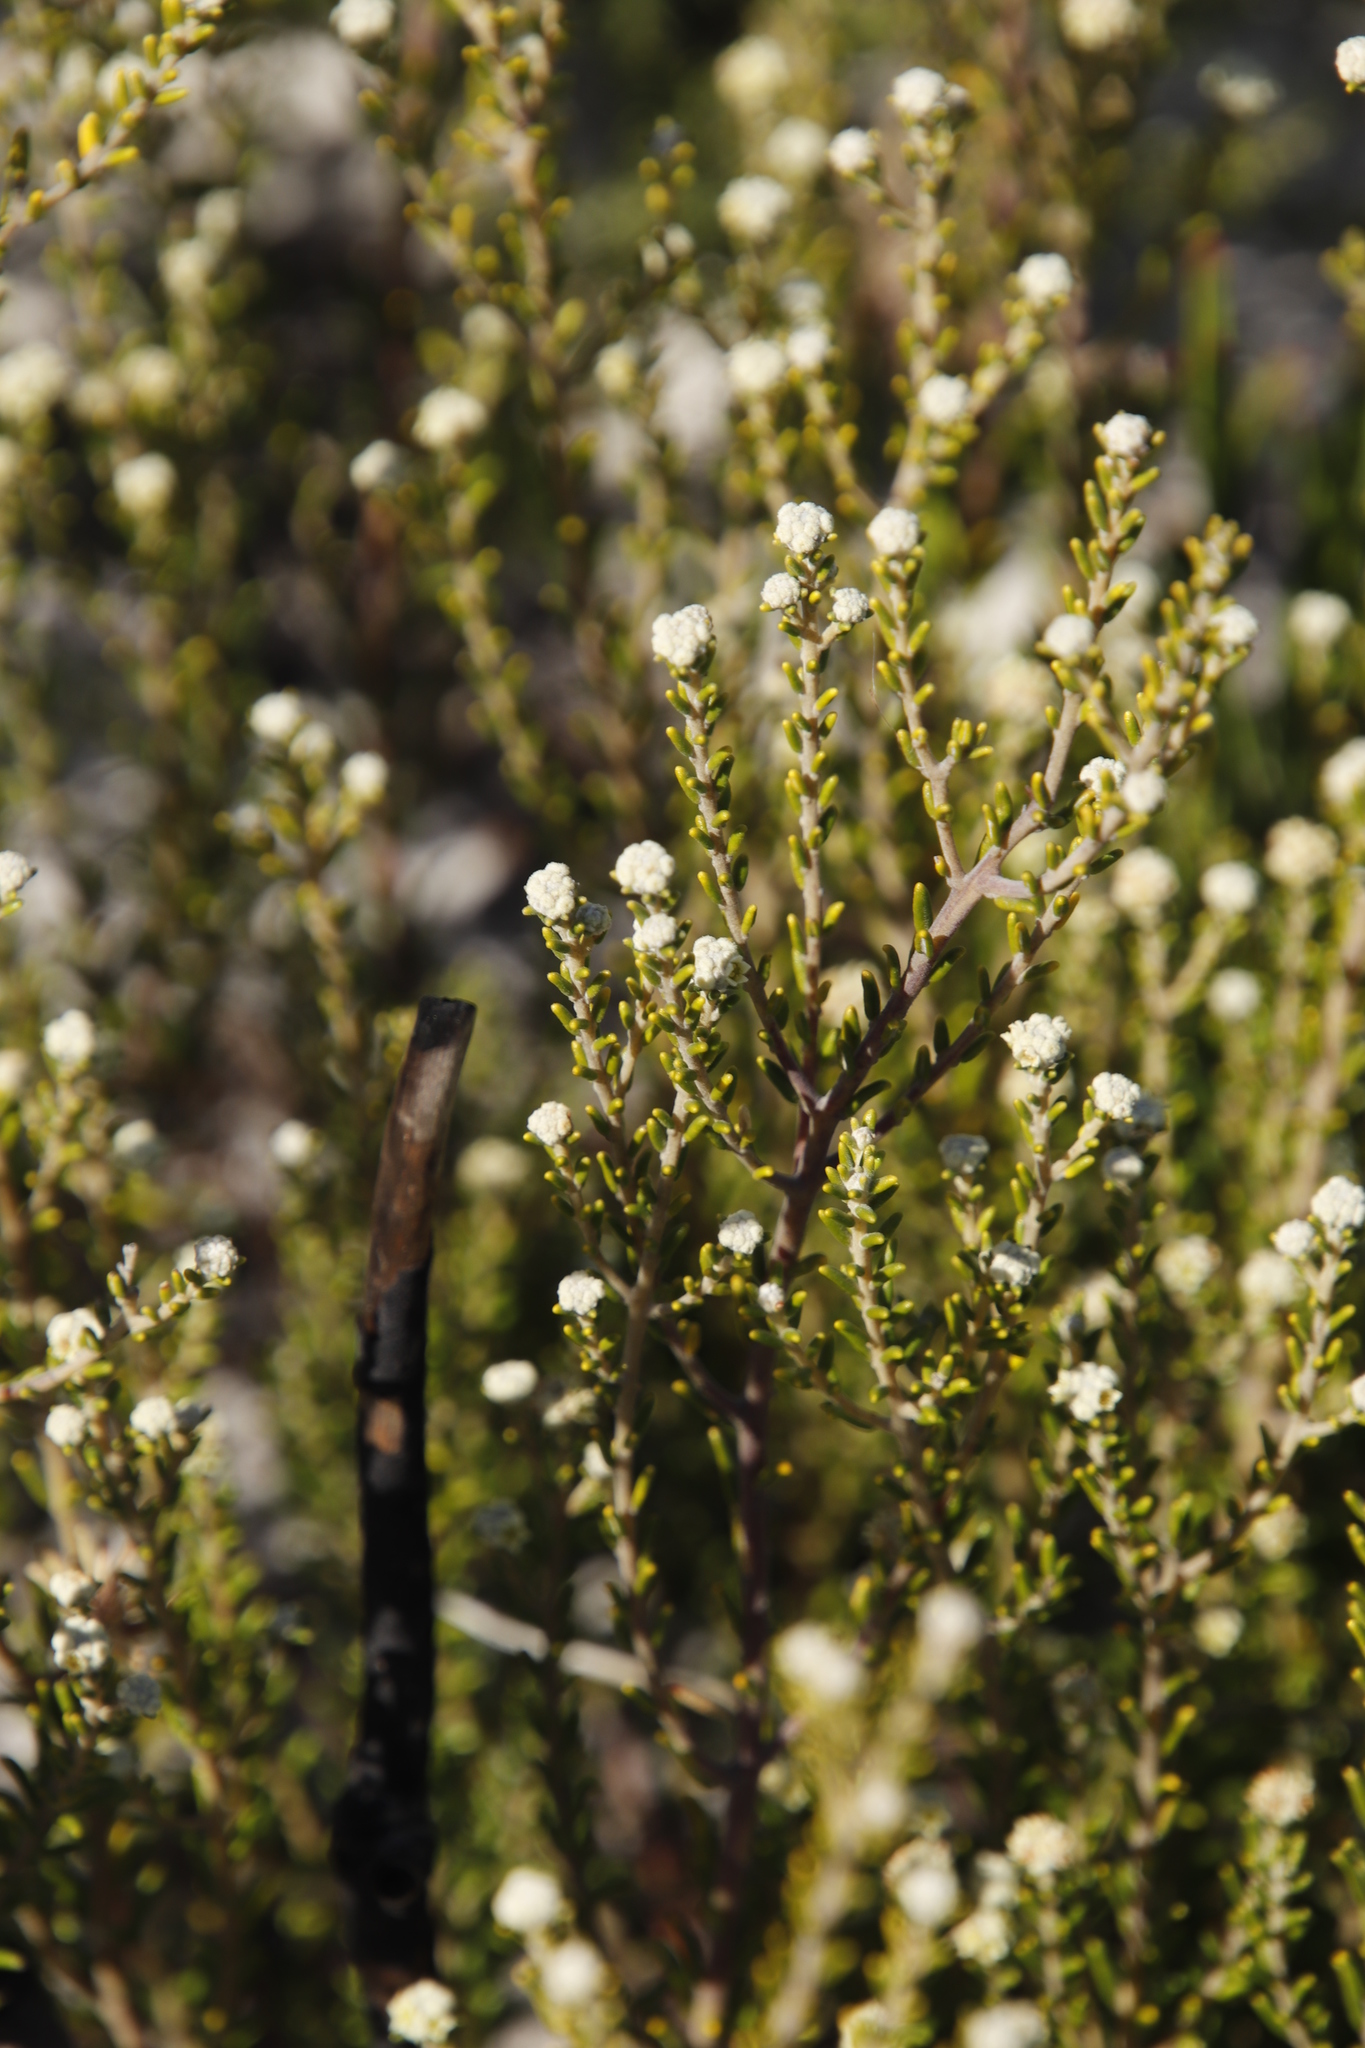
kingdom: Plantae
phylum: Tracheophyta
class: Magnoliopsida
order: Rosales
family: Rhamnaceae
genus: Phylica
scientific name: Phylica cephalantha
